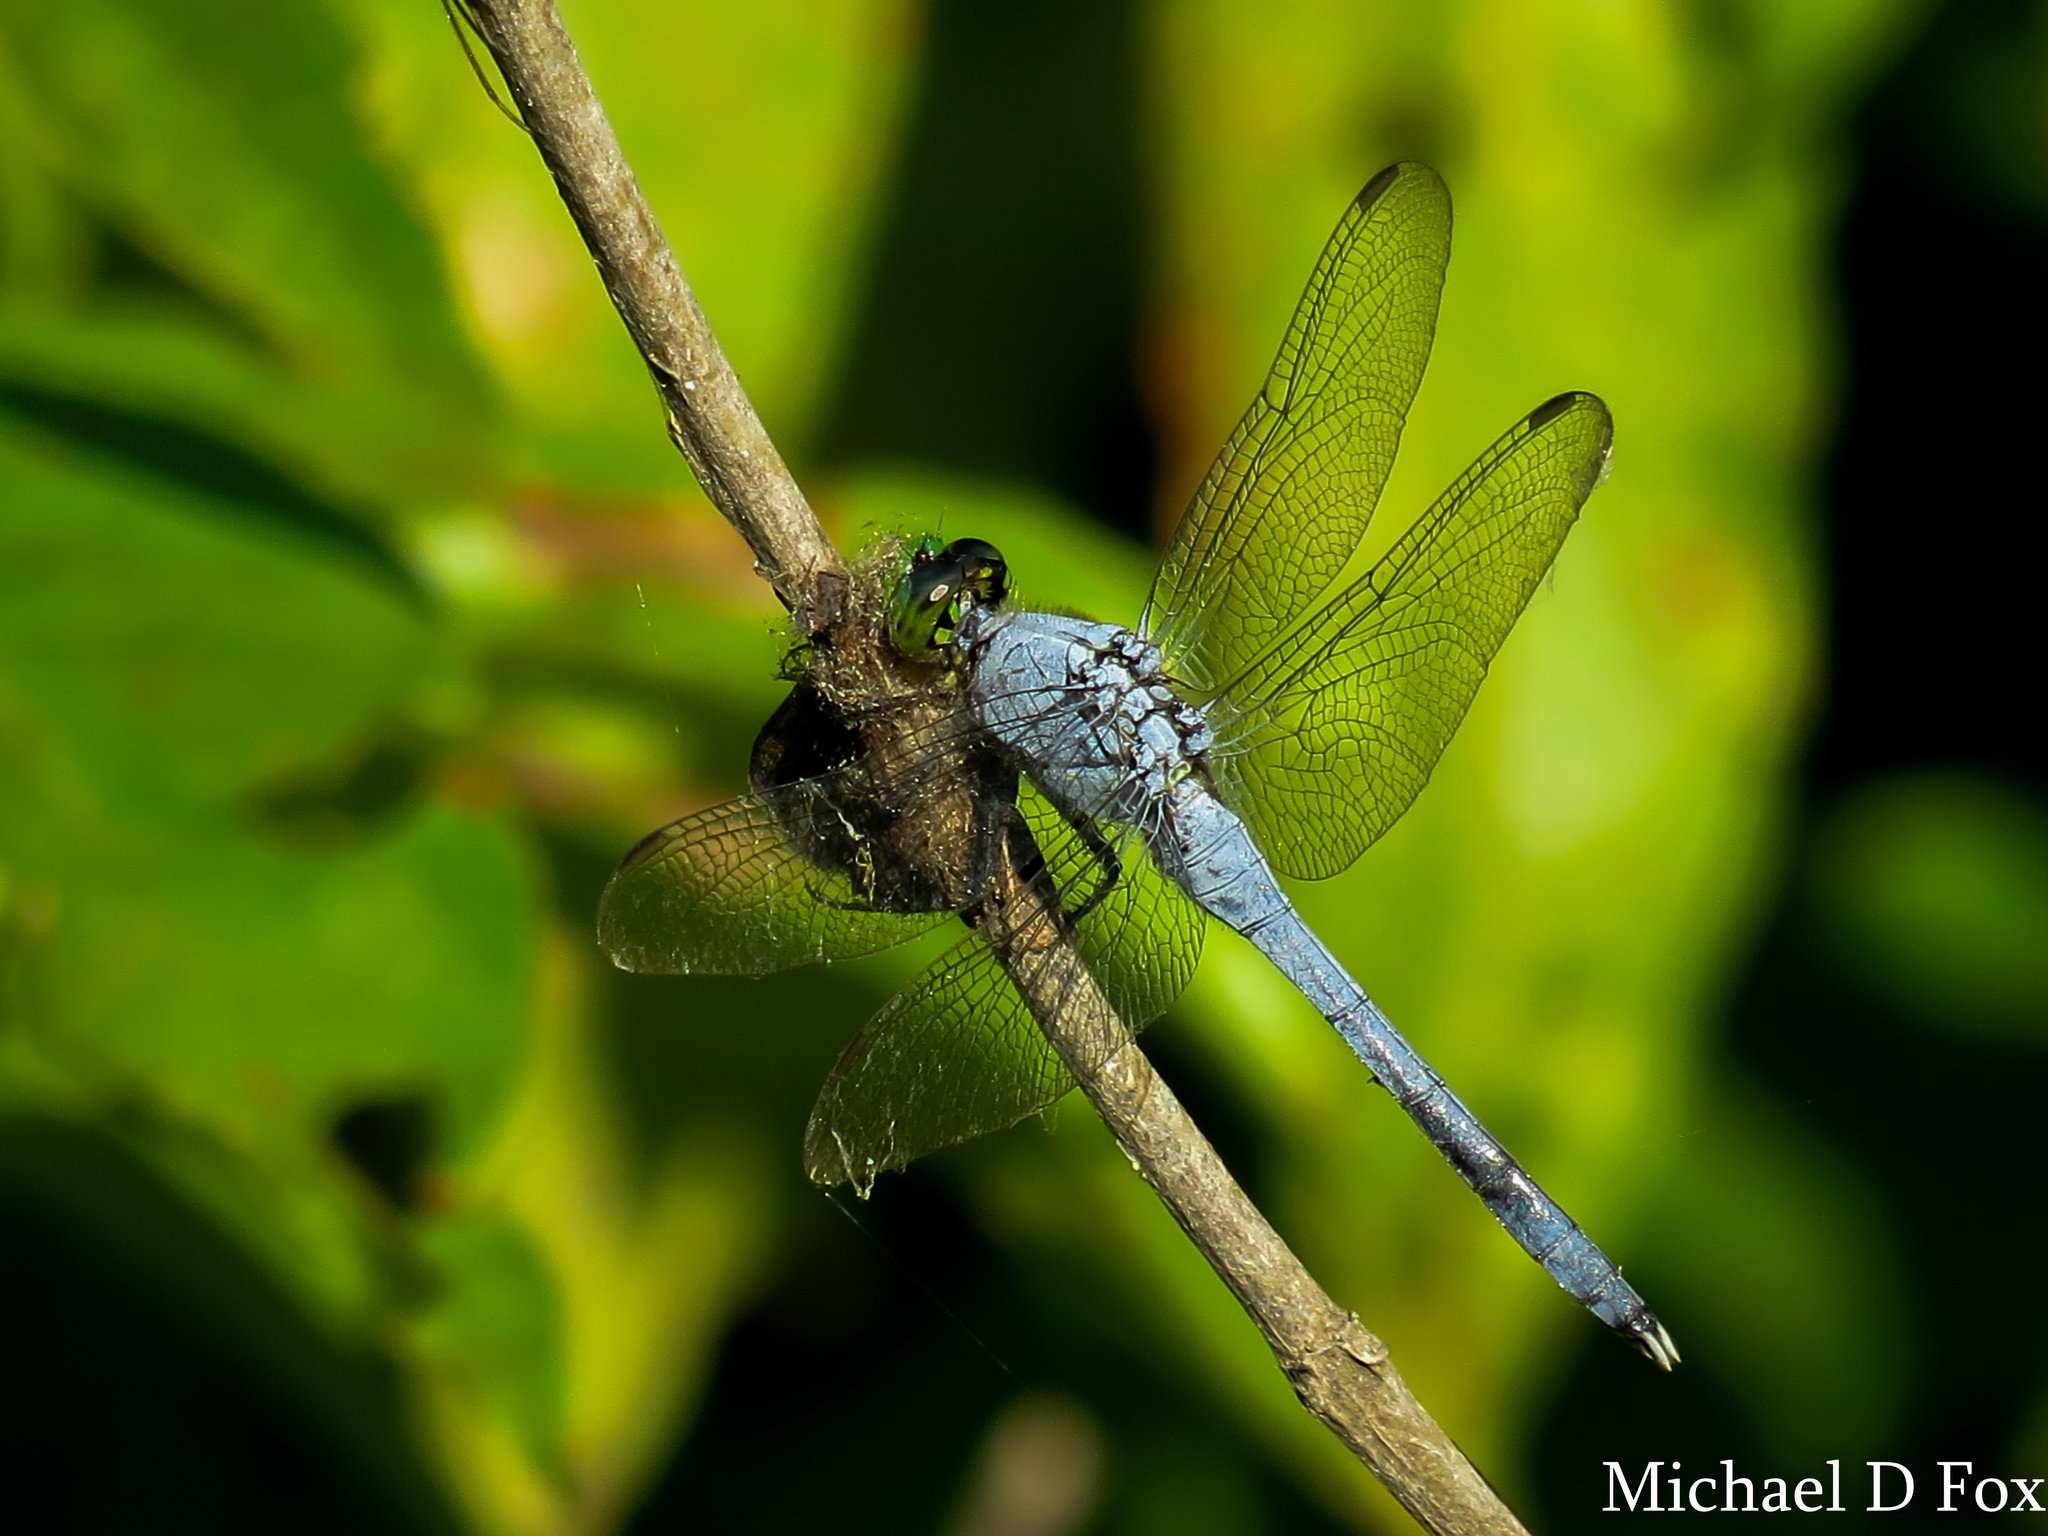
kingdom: Animalia
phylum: Arthropoda
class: Insecta
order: Odonata
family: Libellulidae
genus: Erythemis
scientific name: Erythemis simplicicollis
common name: Eastern pondhawk
